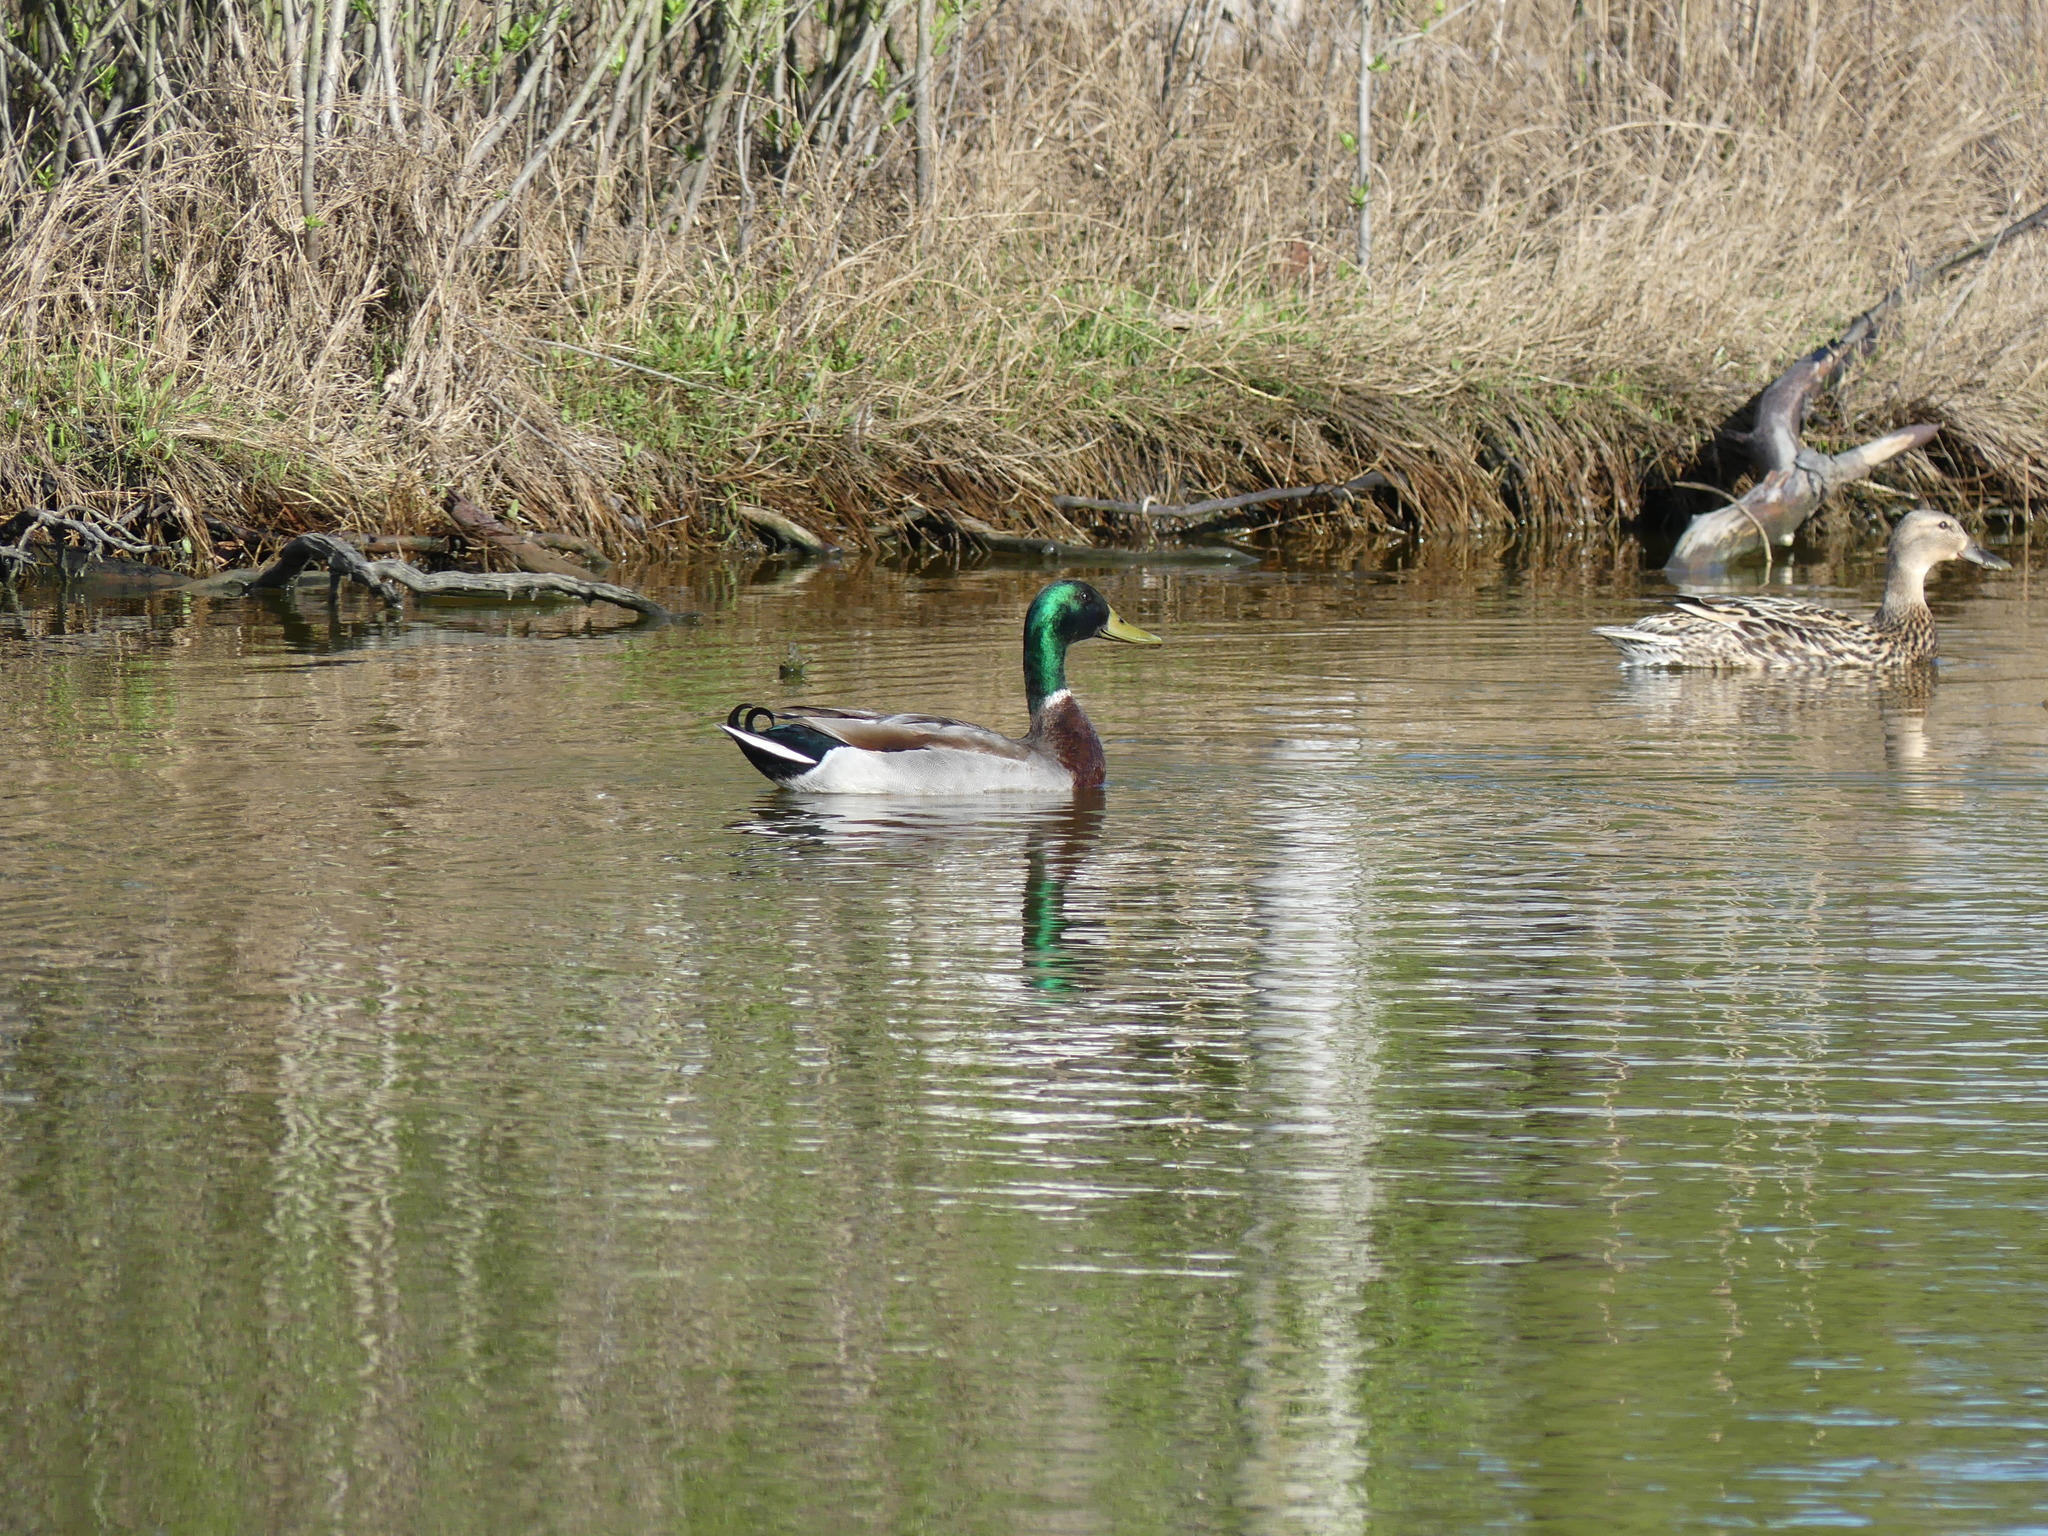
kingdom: Animalia
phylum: Chordata
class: Aves
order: Anseriformes
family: Anatidae
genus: Anas
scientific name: Anas platyrhynchos
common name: Mallard
